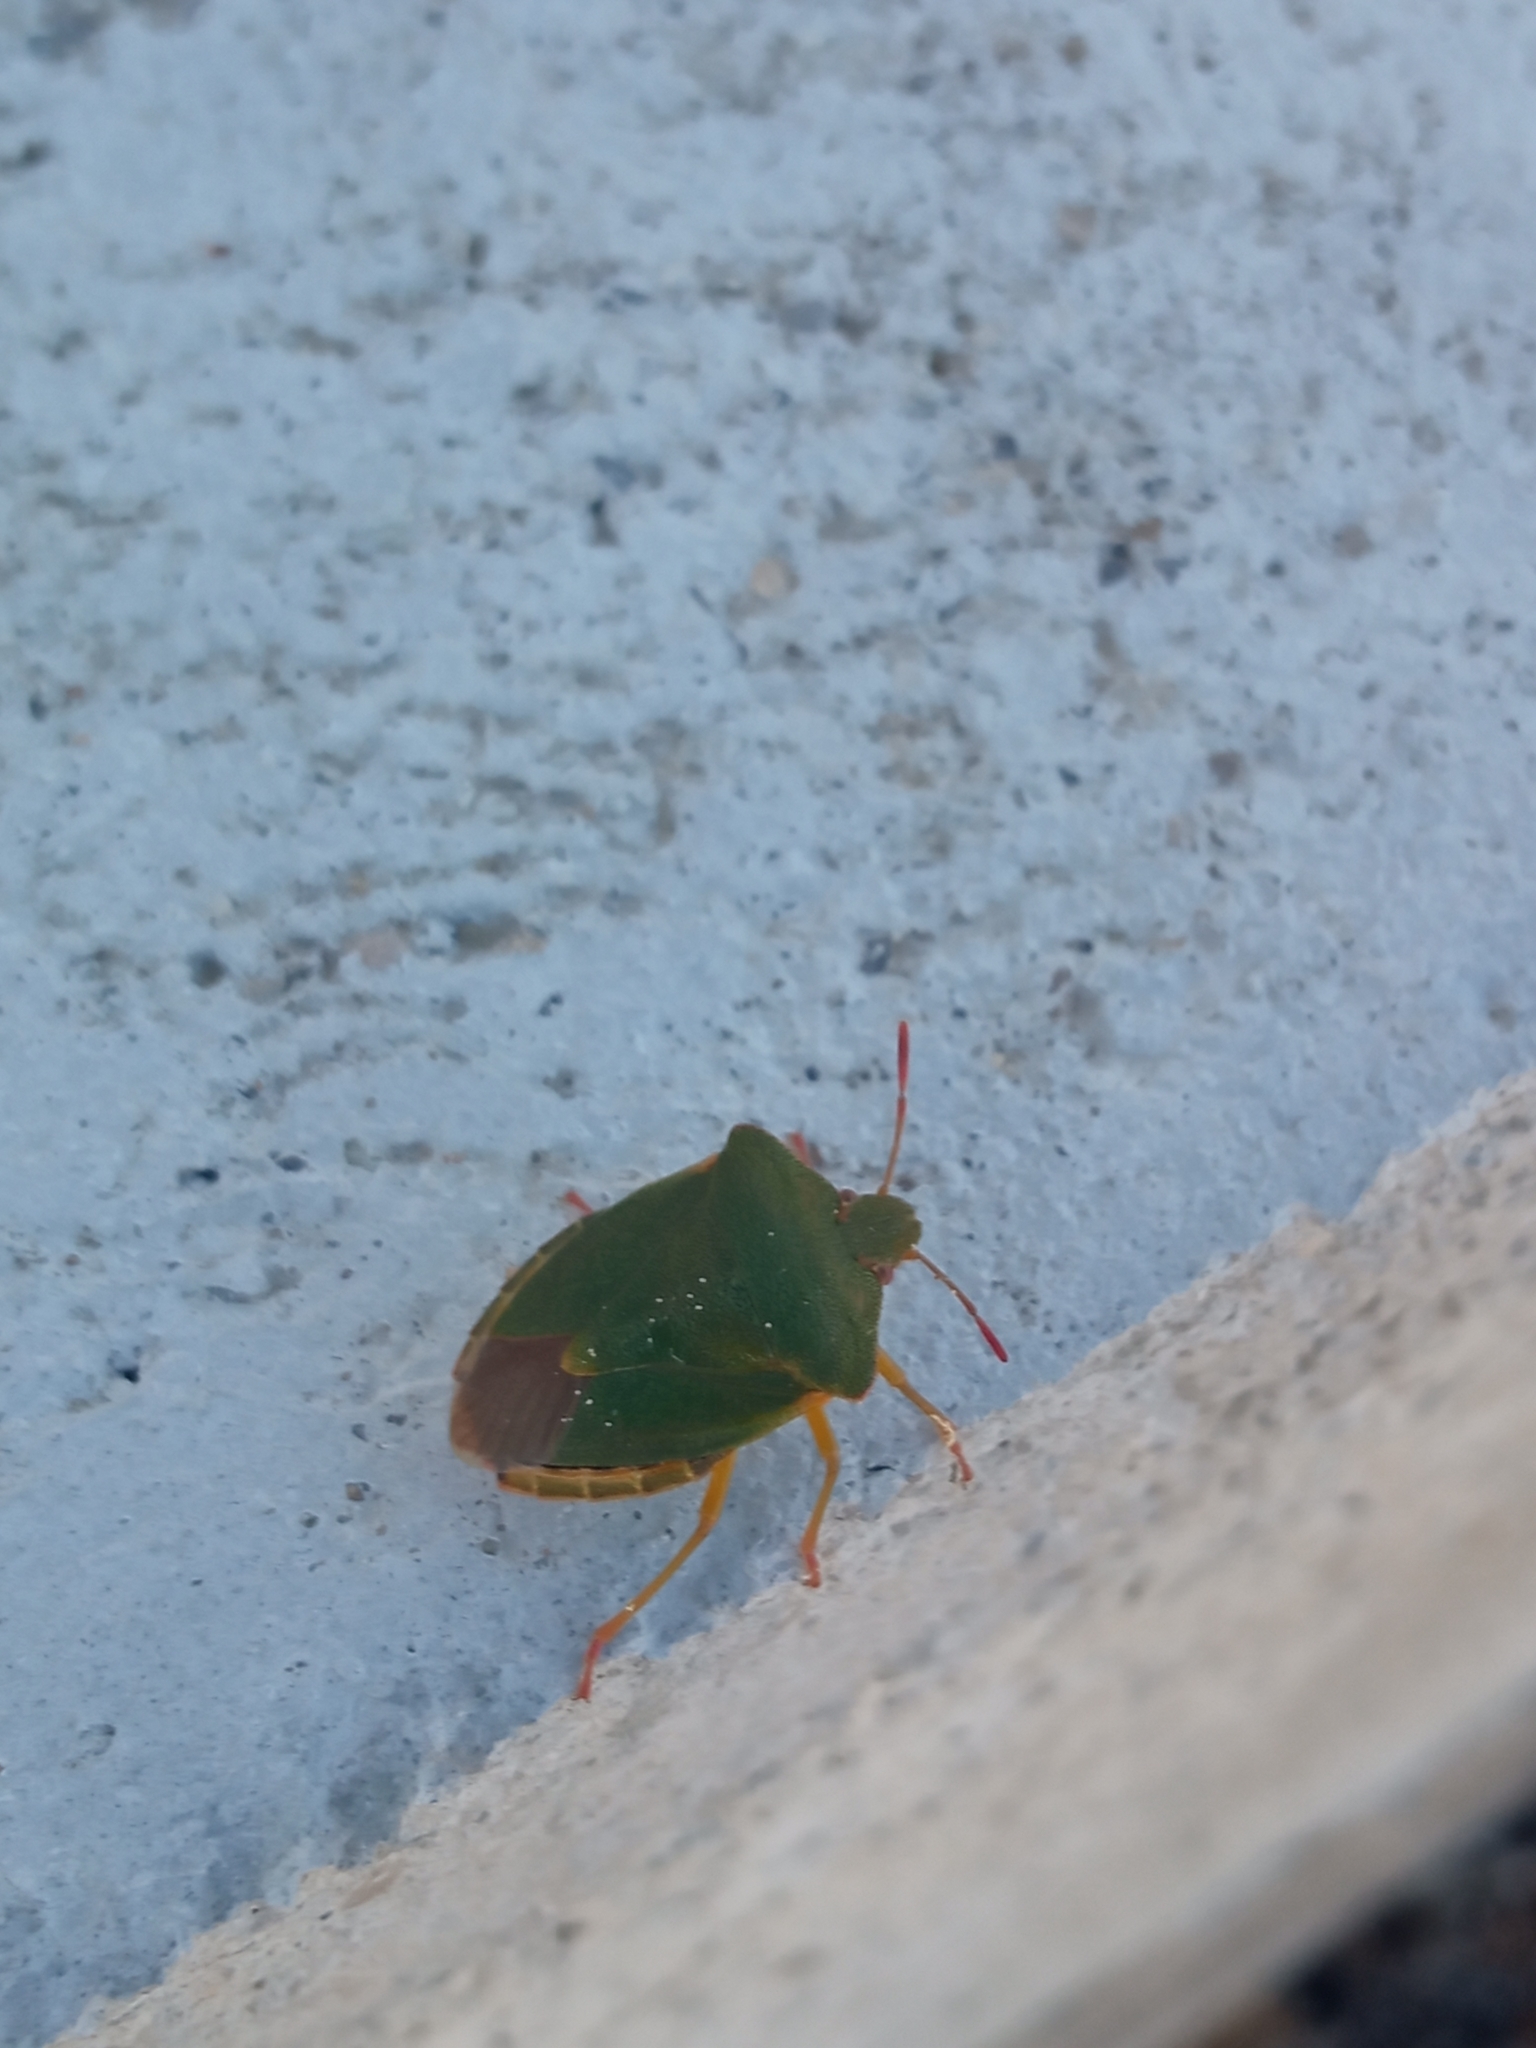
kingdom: Animalia
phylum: Arthropoda
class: Insecta
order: Hemiptera
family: Pentatomidae
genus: Palomena
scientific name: Palomena prasina
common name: Green shieldbug
